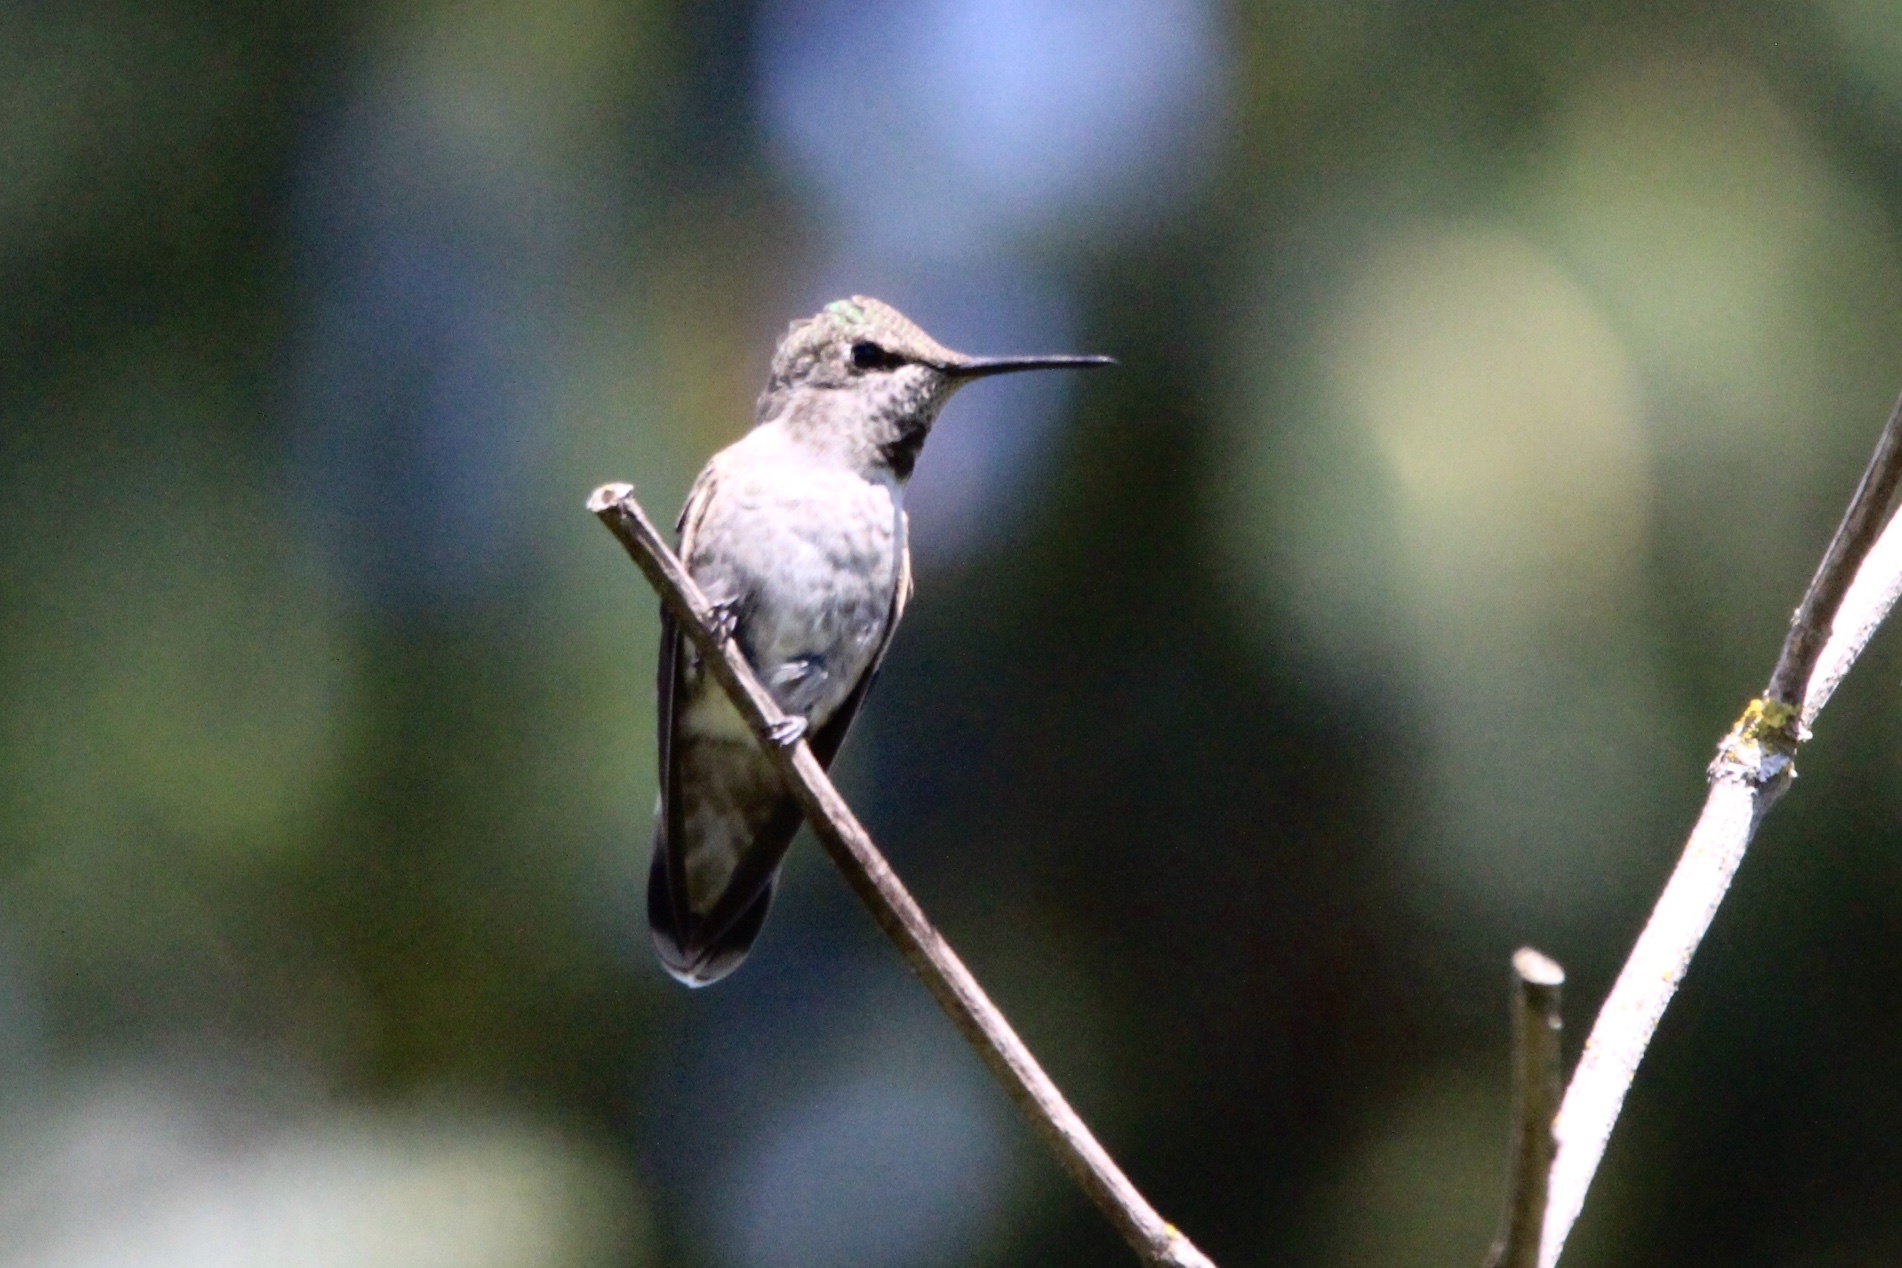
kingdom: Animalia
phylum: Chordata
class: Aves
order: Apodiformes
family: Trochilidae
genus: Calypte
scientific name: Calypte anna
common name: Anna's hummingbird
